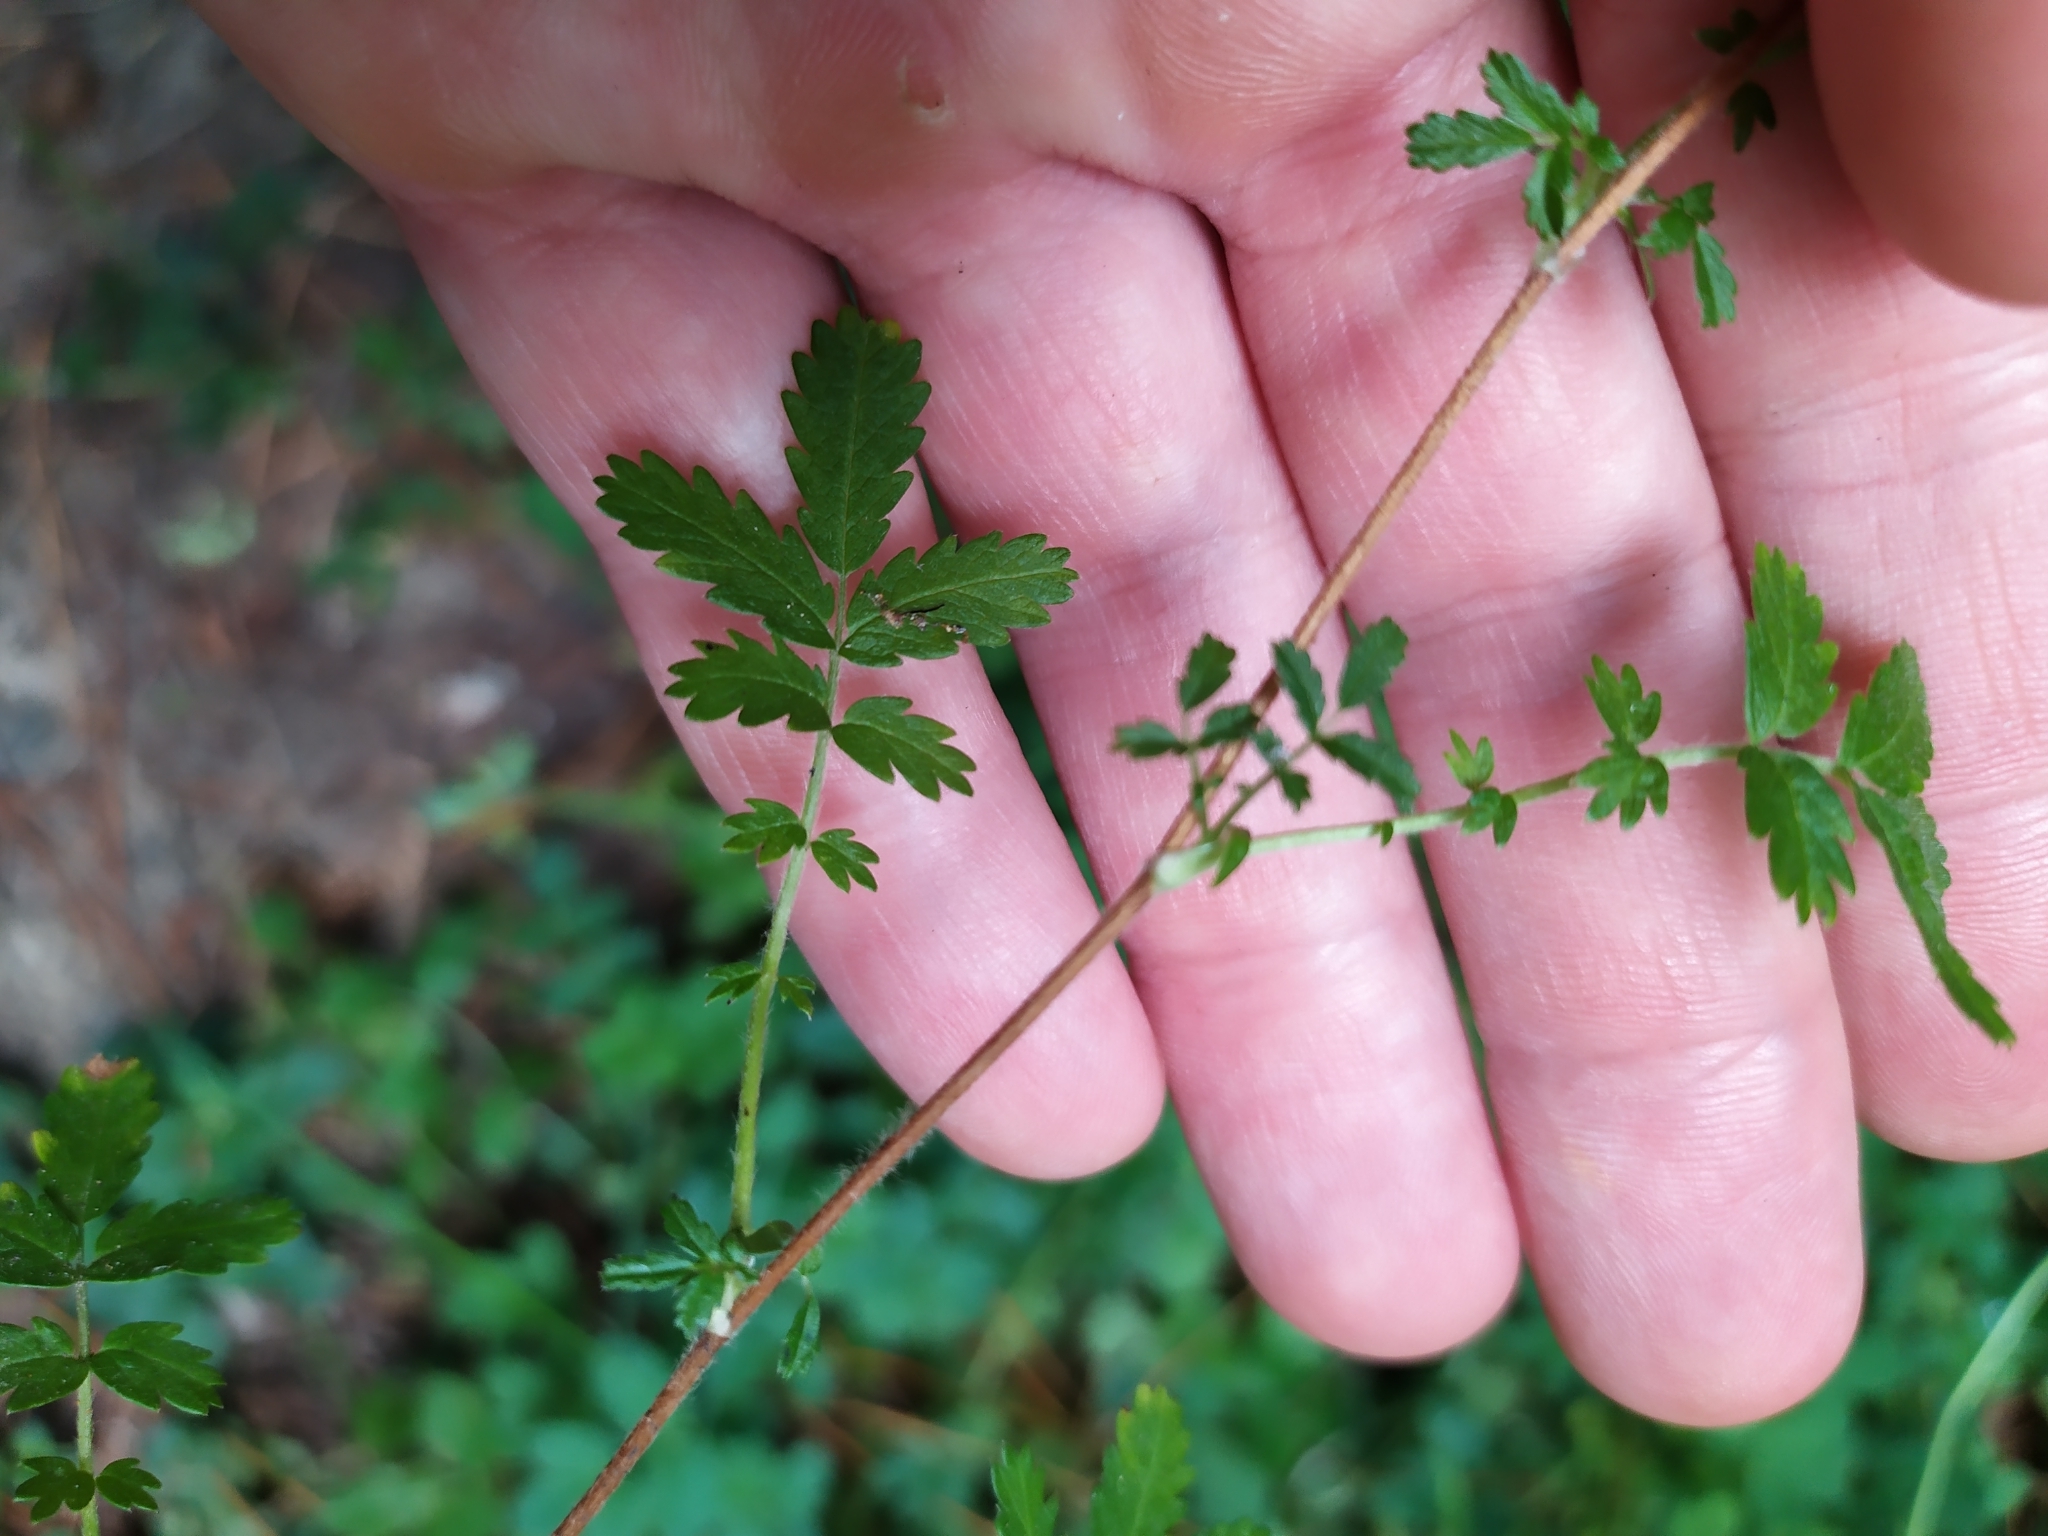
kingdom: Plantae
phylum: Tracheophyta
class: Magnoliopsida
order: Rosales
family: Rosaceae
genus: Acaena
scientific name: Acaena anserinifolia
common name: Bronze pirri-pirri-bur
